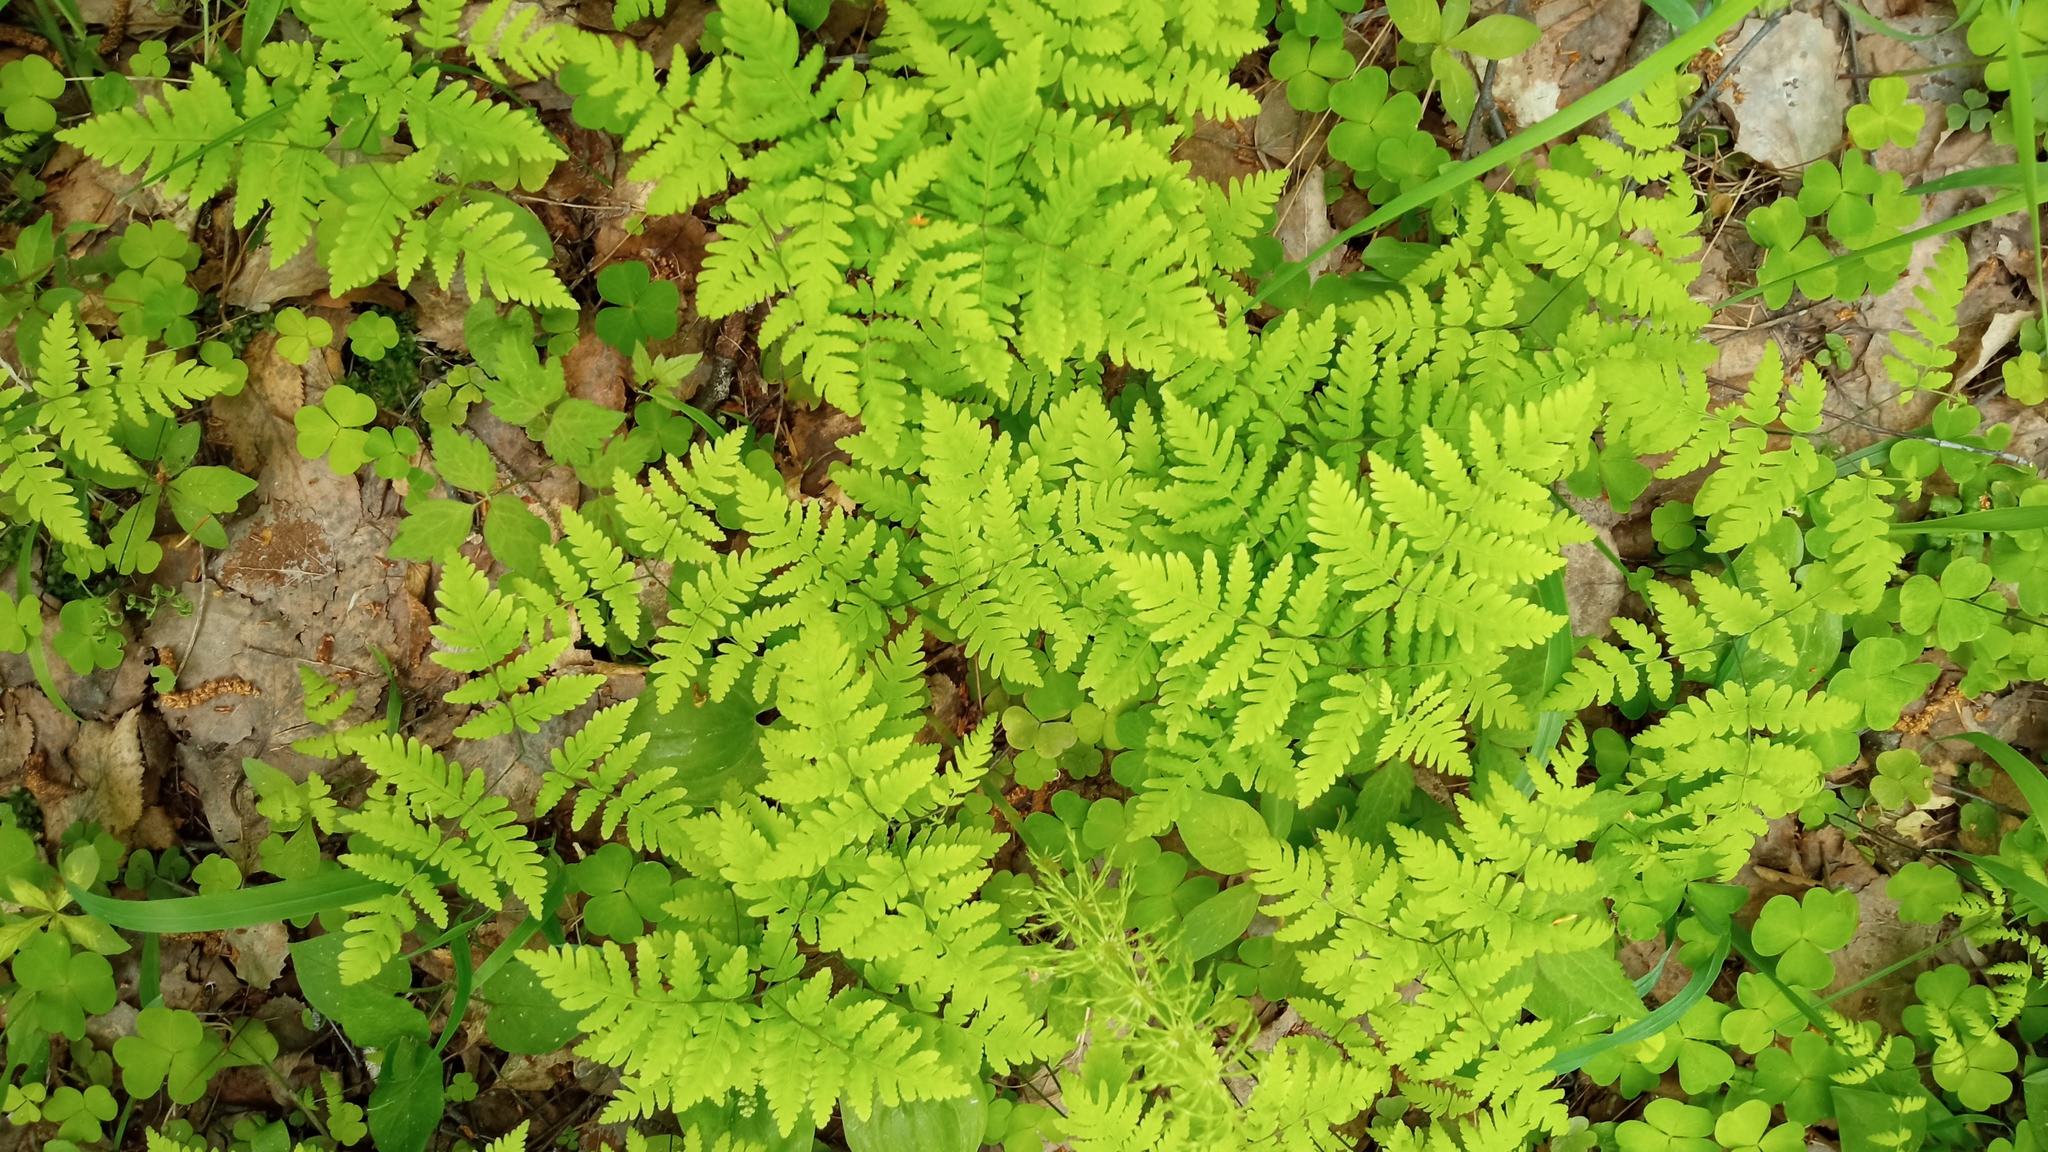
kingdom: Plantae
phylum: Tracheophyta
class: Polypodiopsida
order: Polypodiales
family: Cystopteridaceae
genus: Gymnocarpium
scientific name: Gymnocarpium dryopteris
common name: Oak fern
